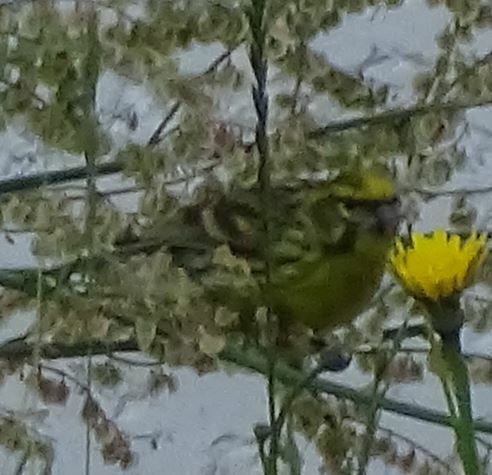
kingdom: Animalia
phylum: Chordata
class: Aves
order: Passeriformes
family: Fringillidae
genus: Serinus
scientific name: Serinus serinus
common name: European serin
